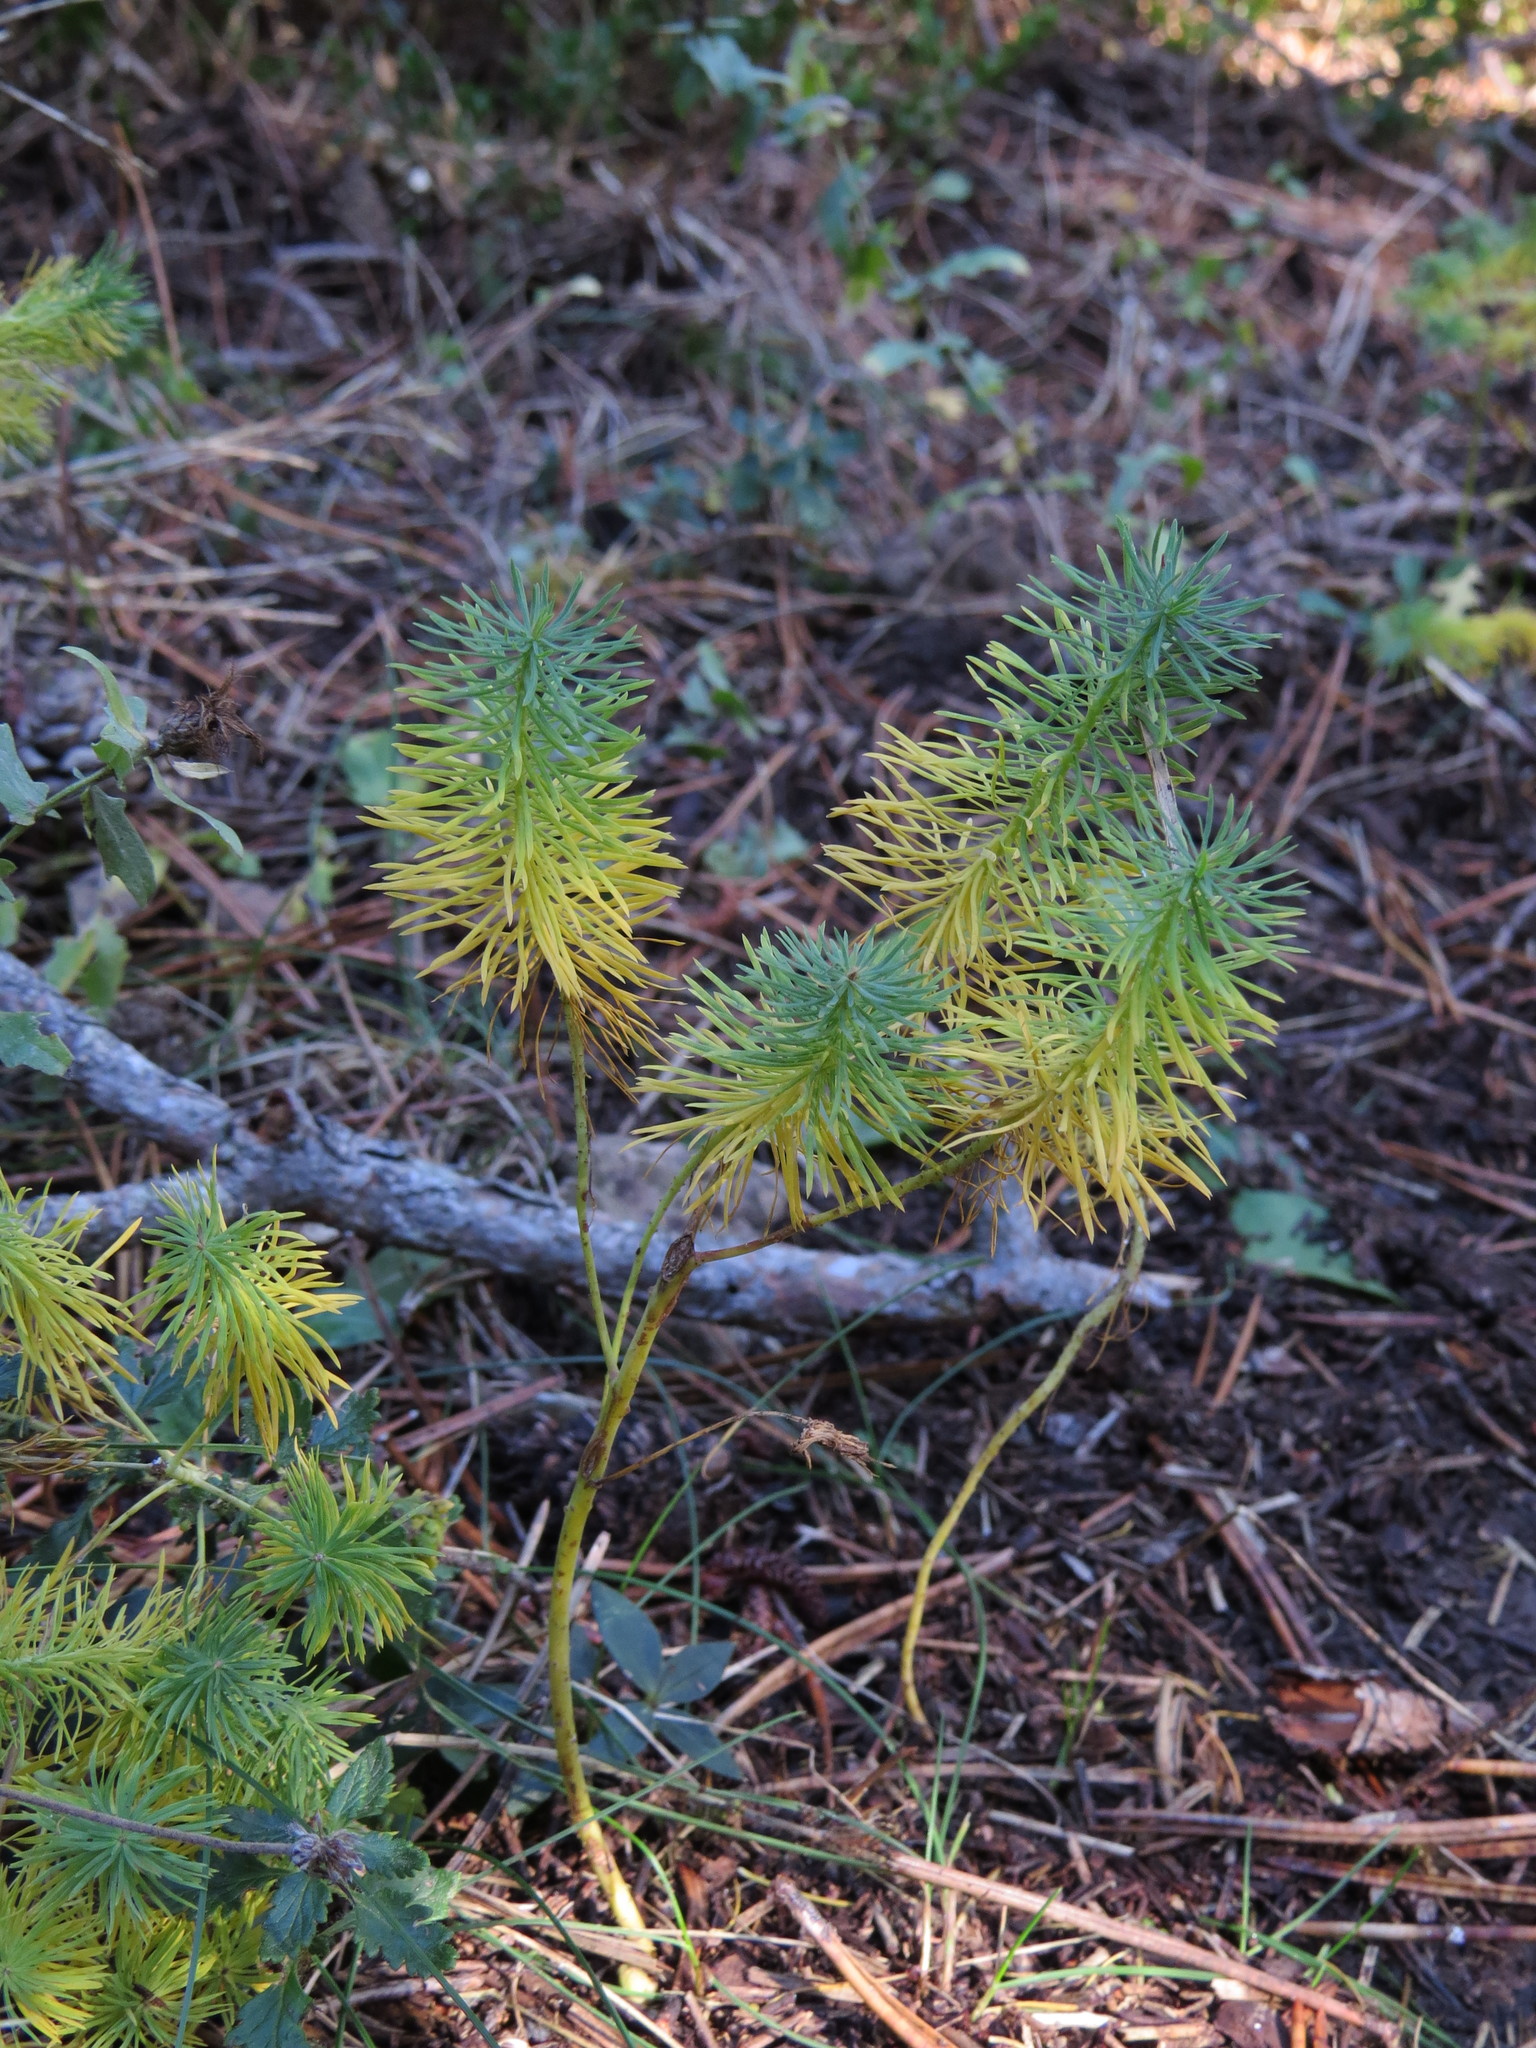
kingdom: Plantae
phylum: Tracheophyta
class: Magnoliopsida
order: Malpighiales
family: Euphorbiaceae
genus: Euphorbia
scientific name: Euphorbia cyparissias
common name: Cypress spurge
